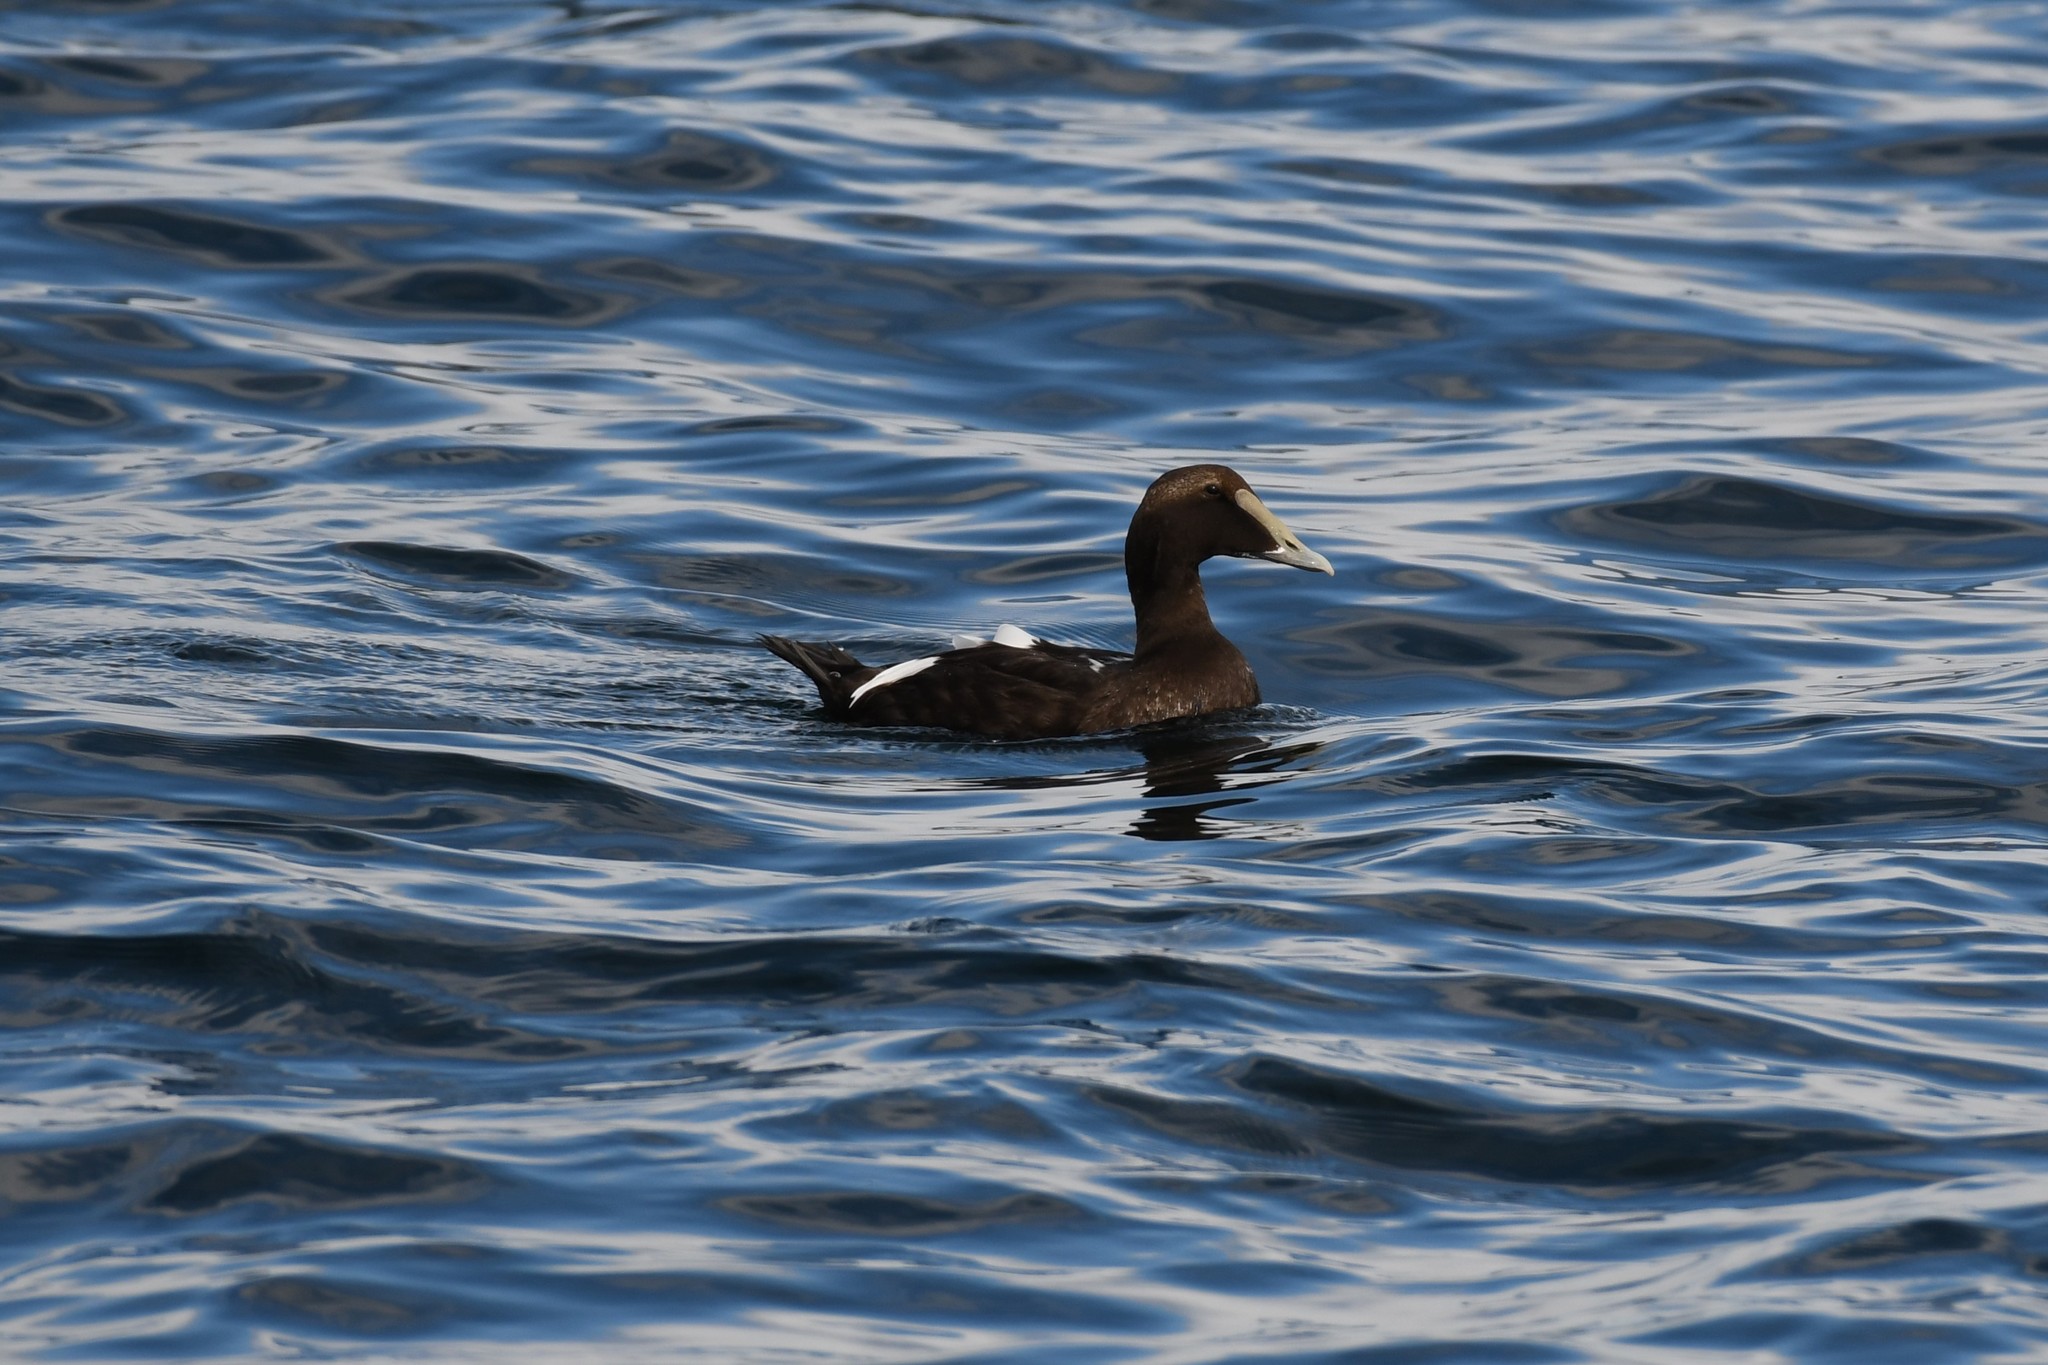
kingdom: Animalia
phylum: Chordata
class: Aves
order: Anseriformes
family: Anatidae
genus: Somateria
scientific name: Somateria mollissima
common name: Common eider
